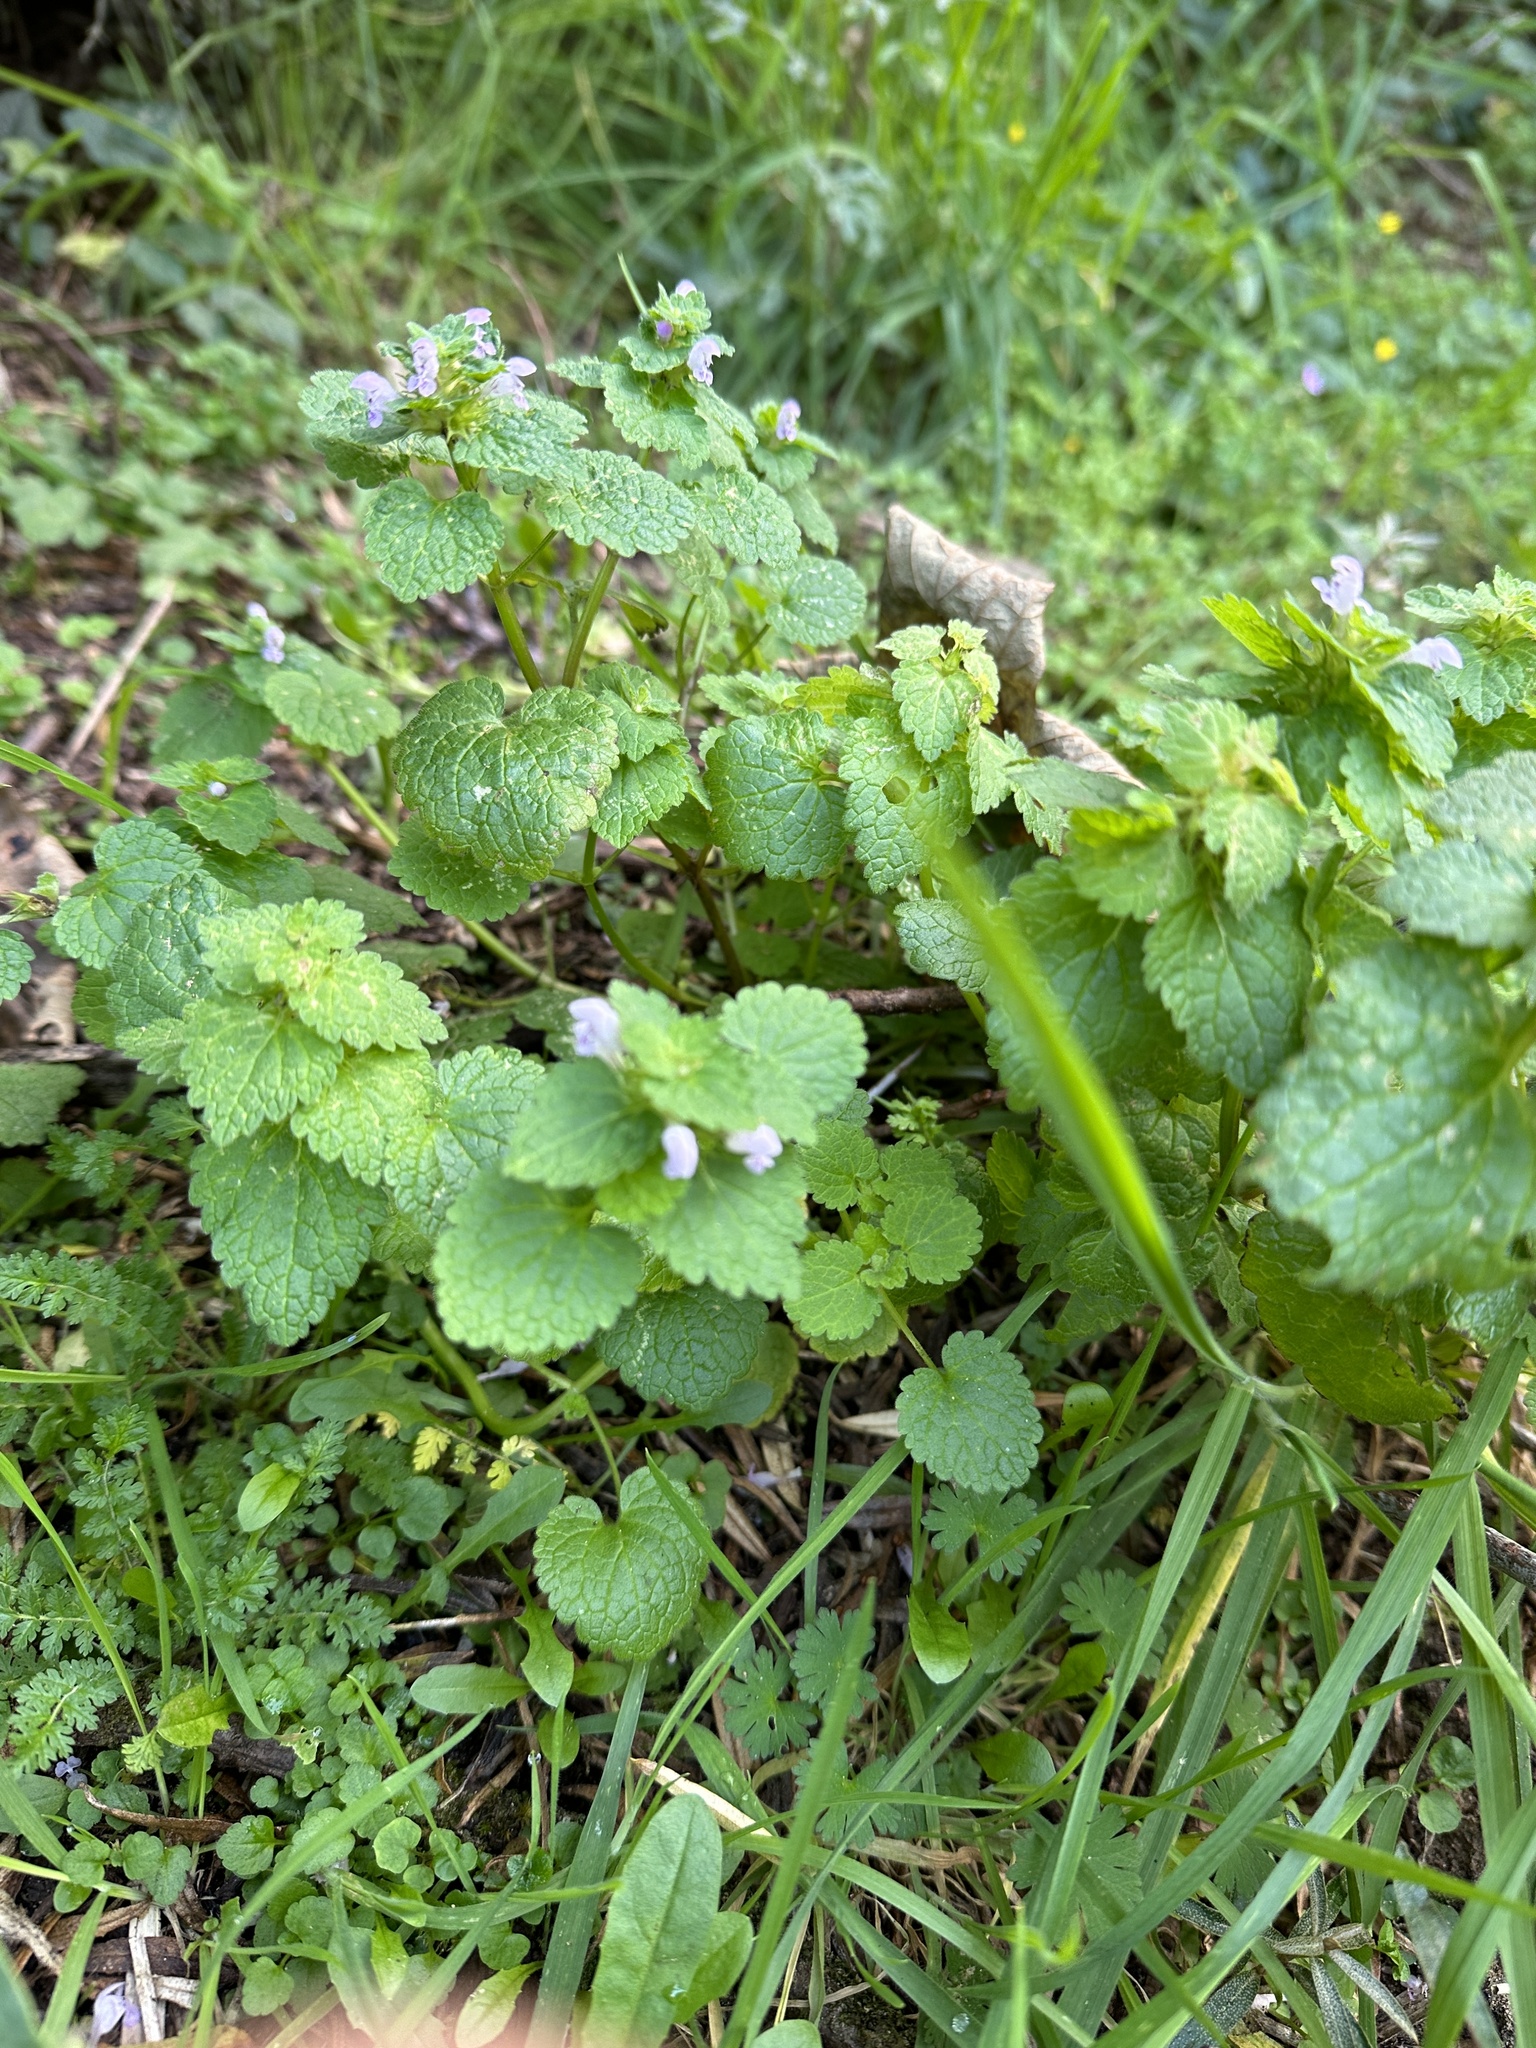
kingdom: Plantae
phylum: Tracheophyta
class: Magnoliopsida
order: Lamiales
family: Lamiaceae
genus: Lamium
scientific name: Lamium purpureum
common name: Red dead-nettle
